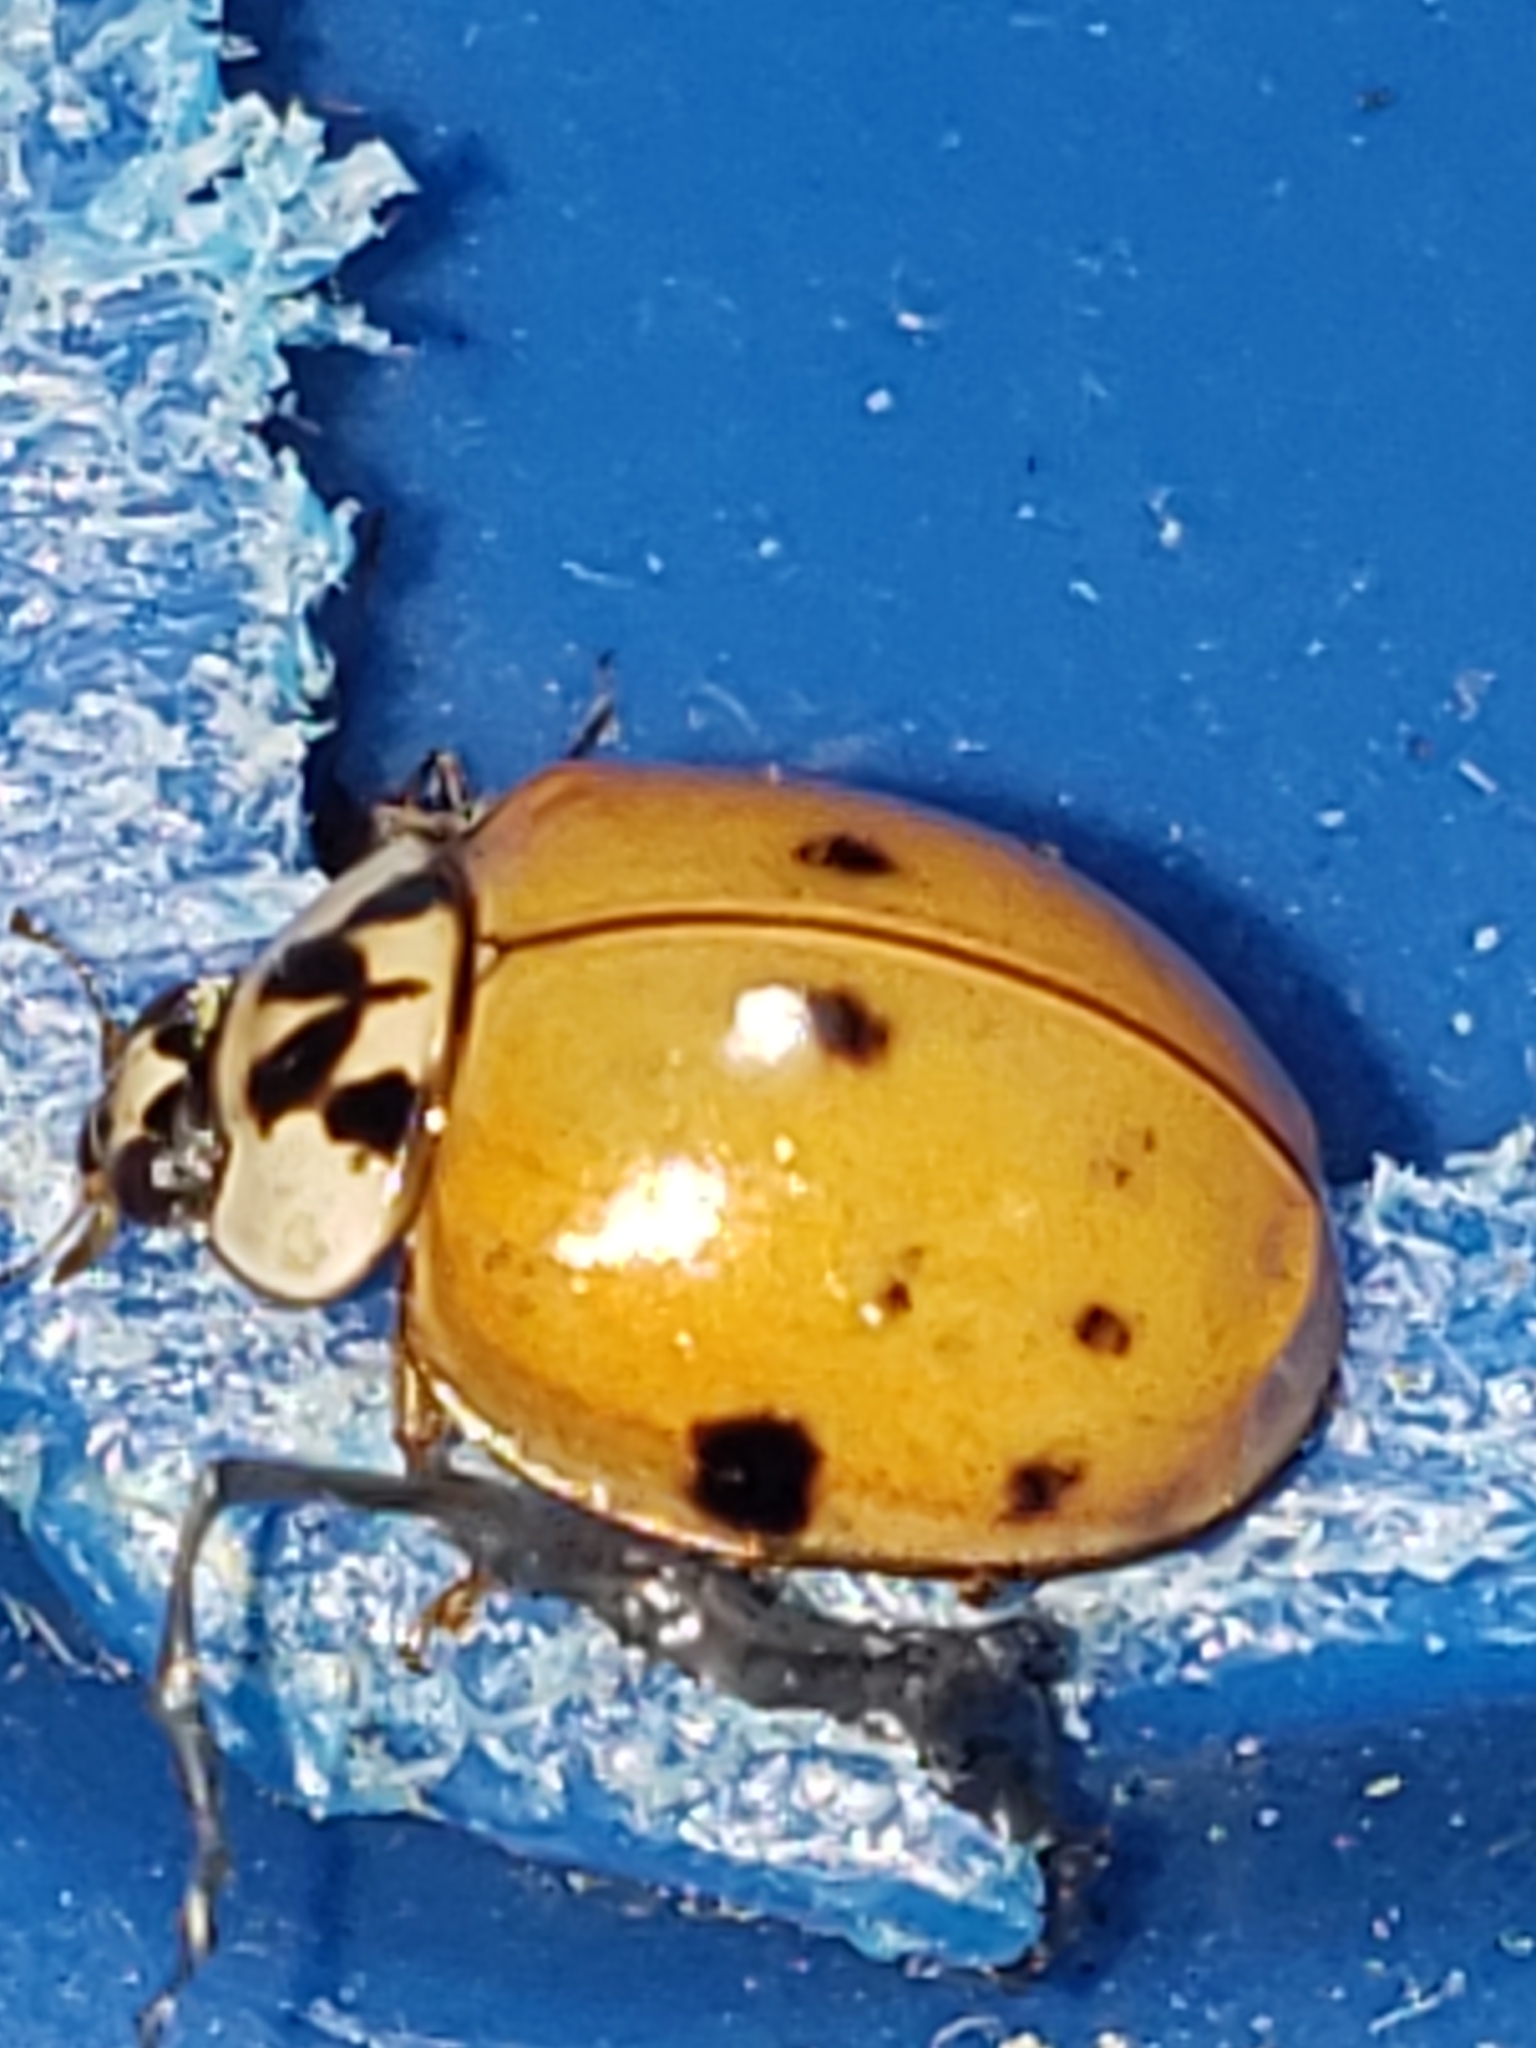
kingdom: Animalia
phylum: Arthropoda
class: Insecta
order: Coleoptera
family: Coccinellidae
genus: Harmonia
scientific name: Harmonia axyridis
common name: Harlequin ladybird
